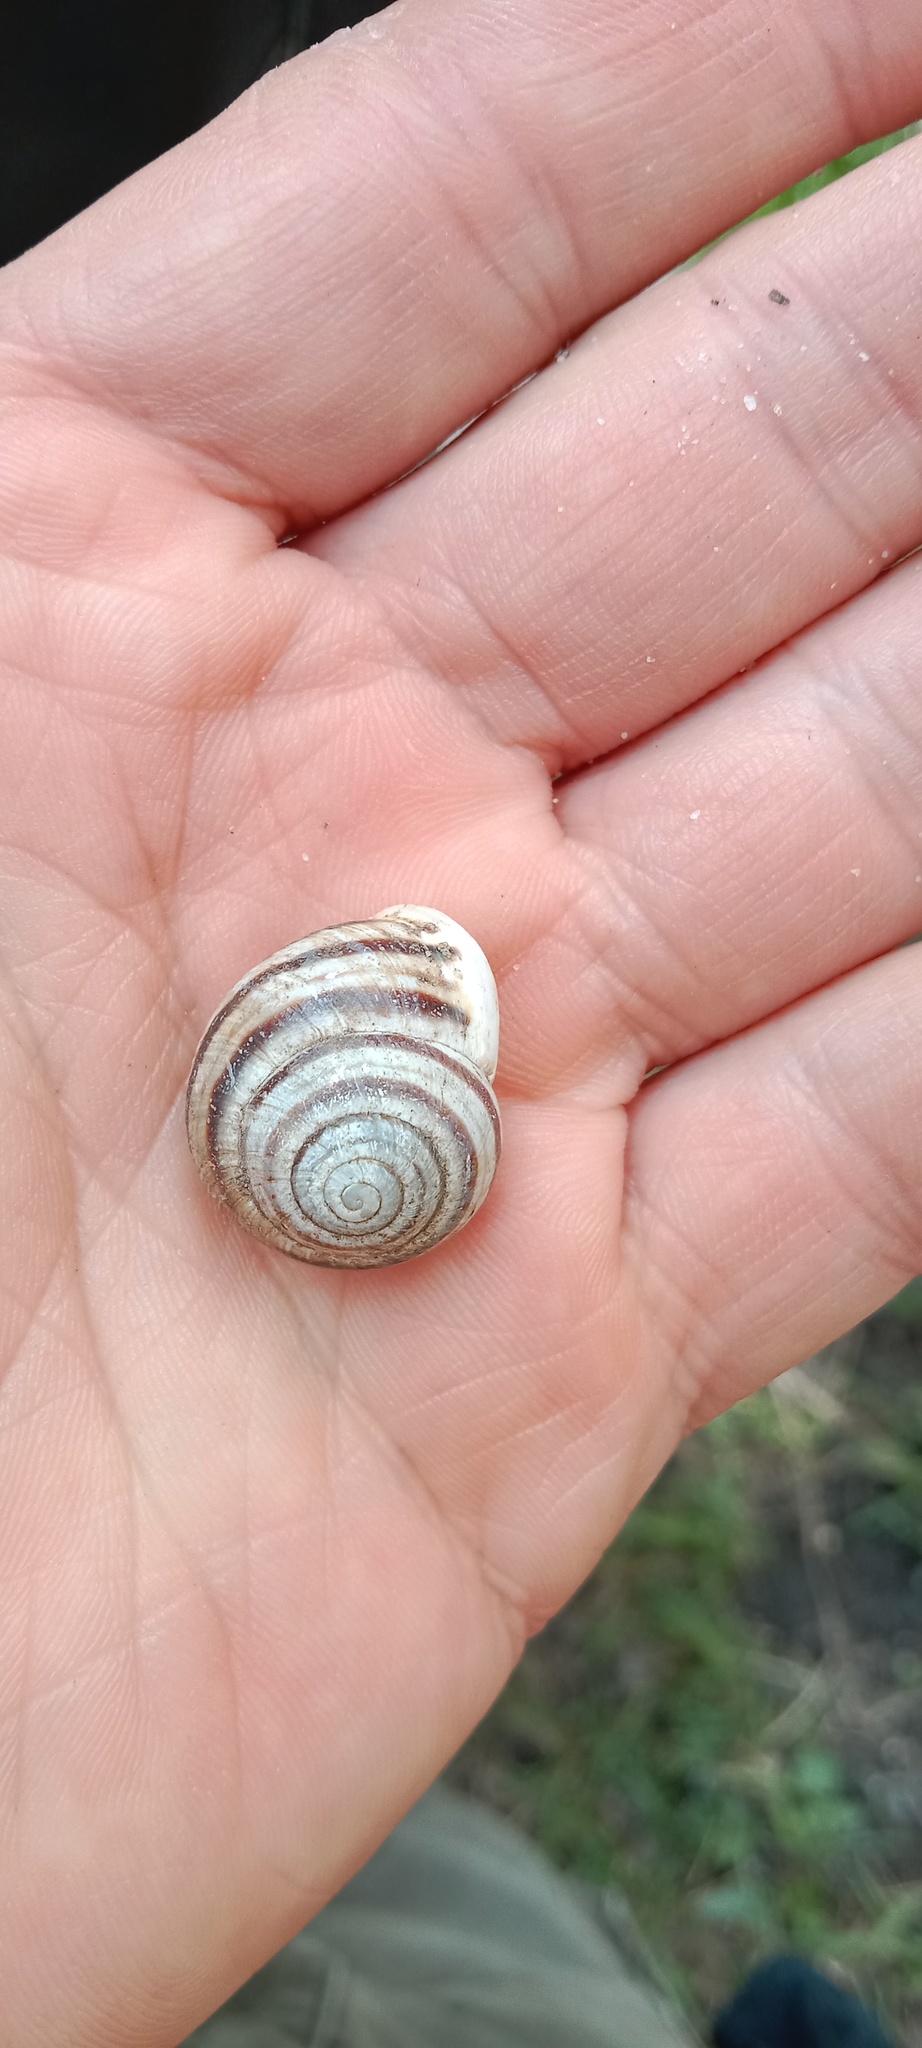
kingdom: Animalia
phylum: Mollusca
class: Gastropoda
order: Stylommatophora
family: Helicidae
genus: Cepaea
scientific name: Cepaea hortensis
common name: White-lip gardensnail
